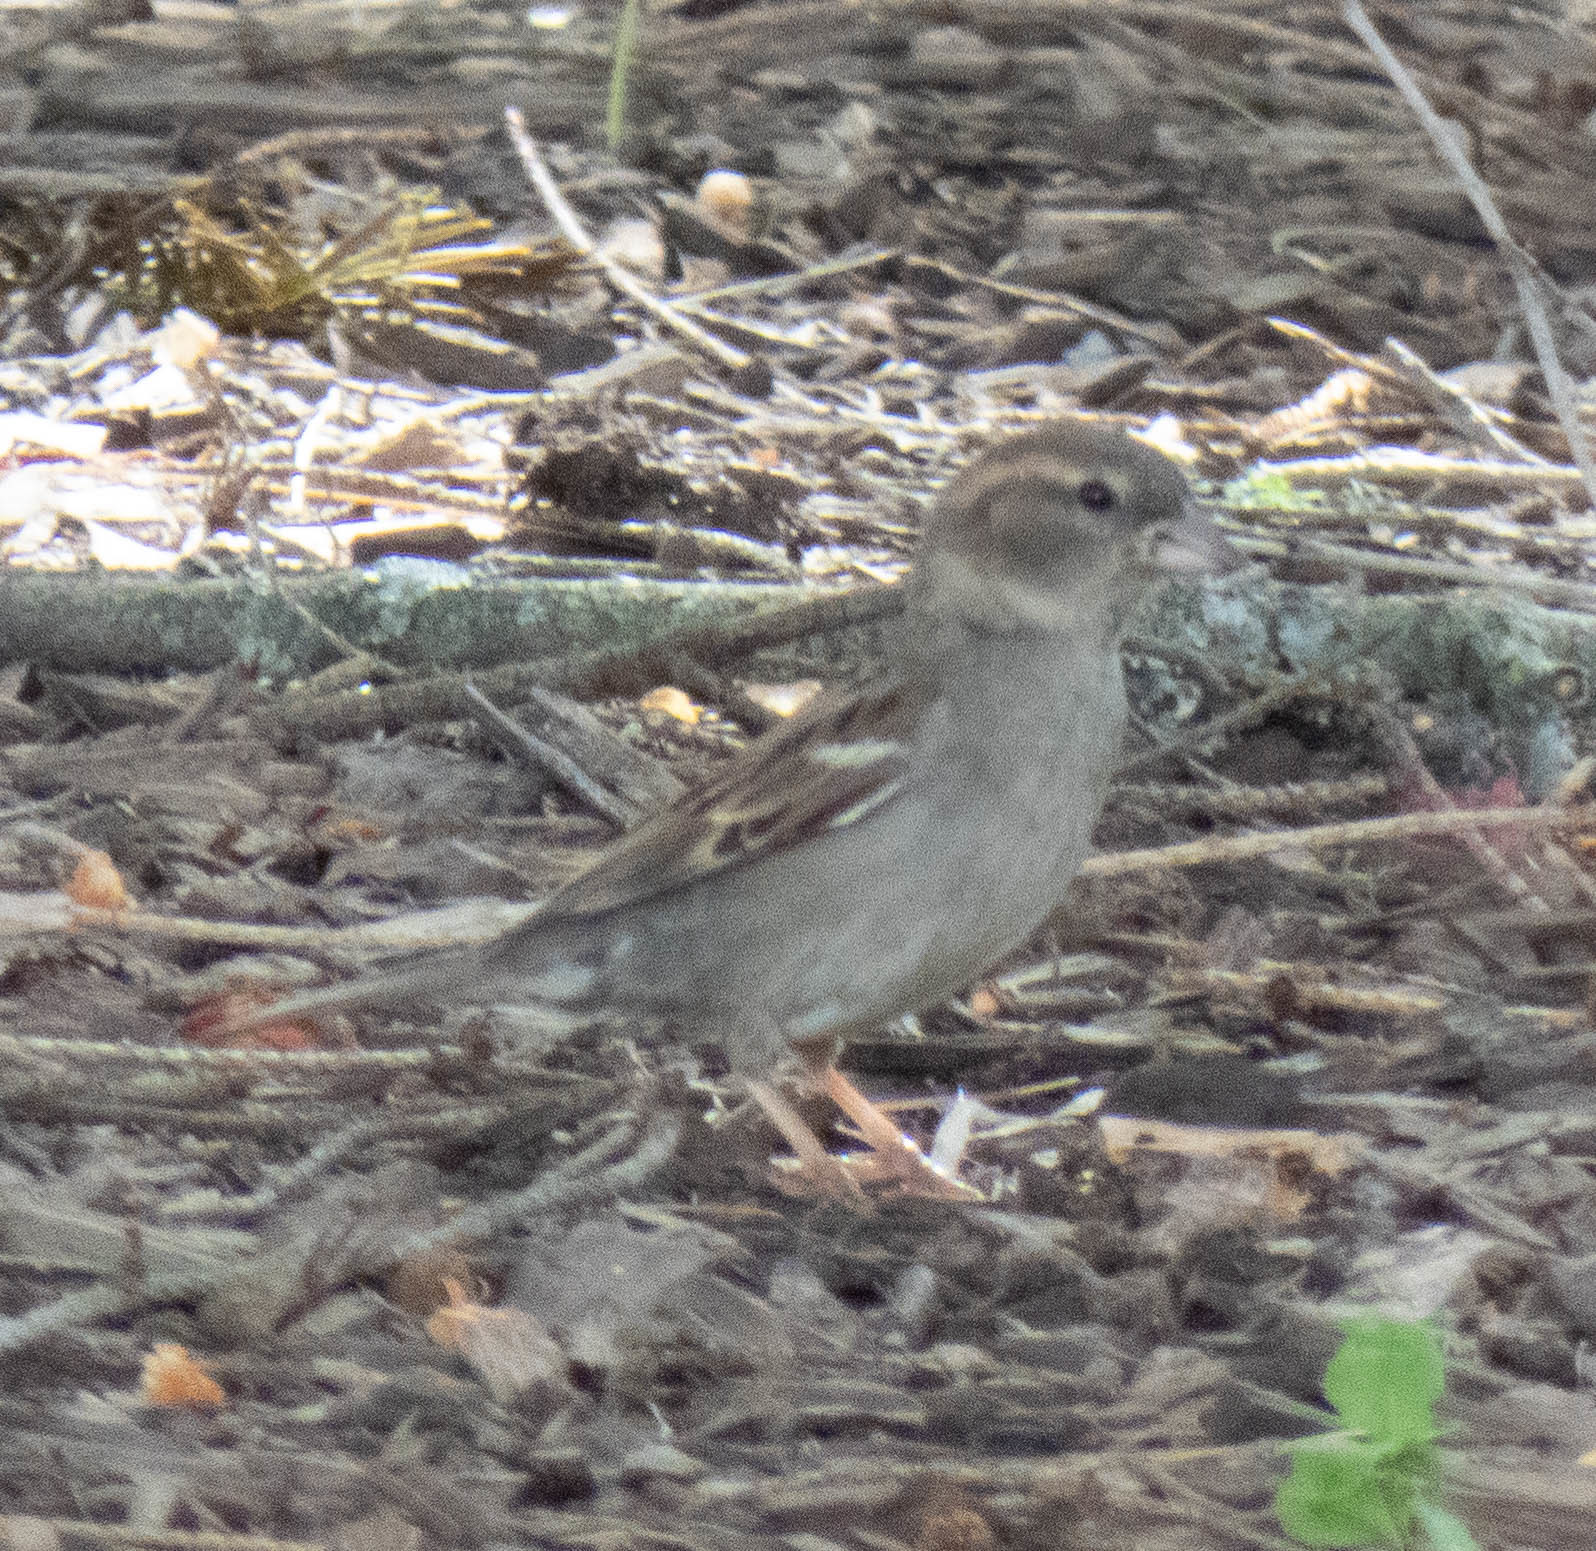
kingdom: Animalia
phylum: Chordata
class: Aves
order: Passeriformes
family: Passeridae
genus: Passer
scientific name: Passer domesticus
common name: House sparrow
